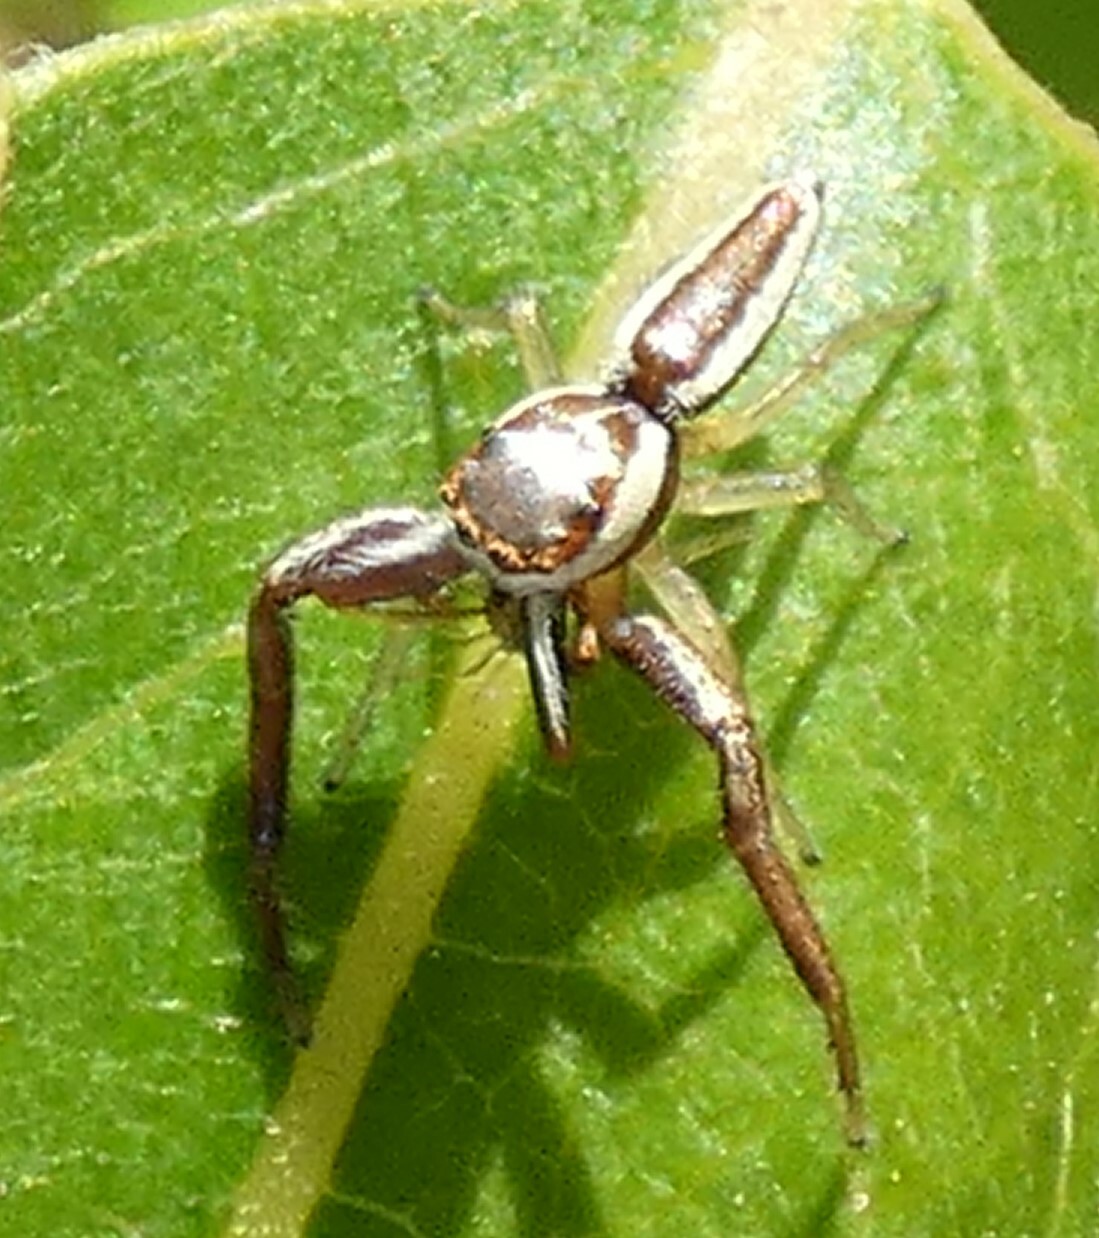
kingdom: Animalia
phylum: Arthropoda
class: Arachnida
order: Araneae
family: Salticidae
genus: Hentzia
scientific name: Hentzia palmarum
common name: Common hentz jumping spider
